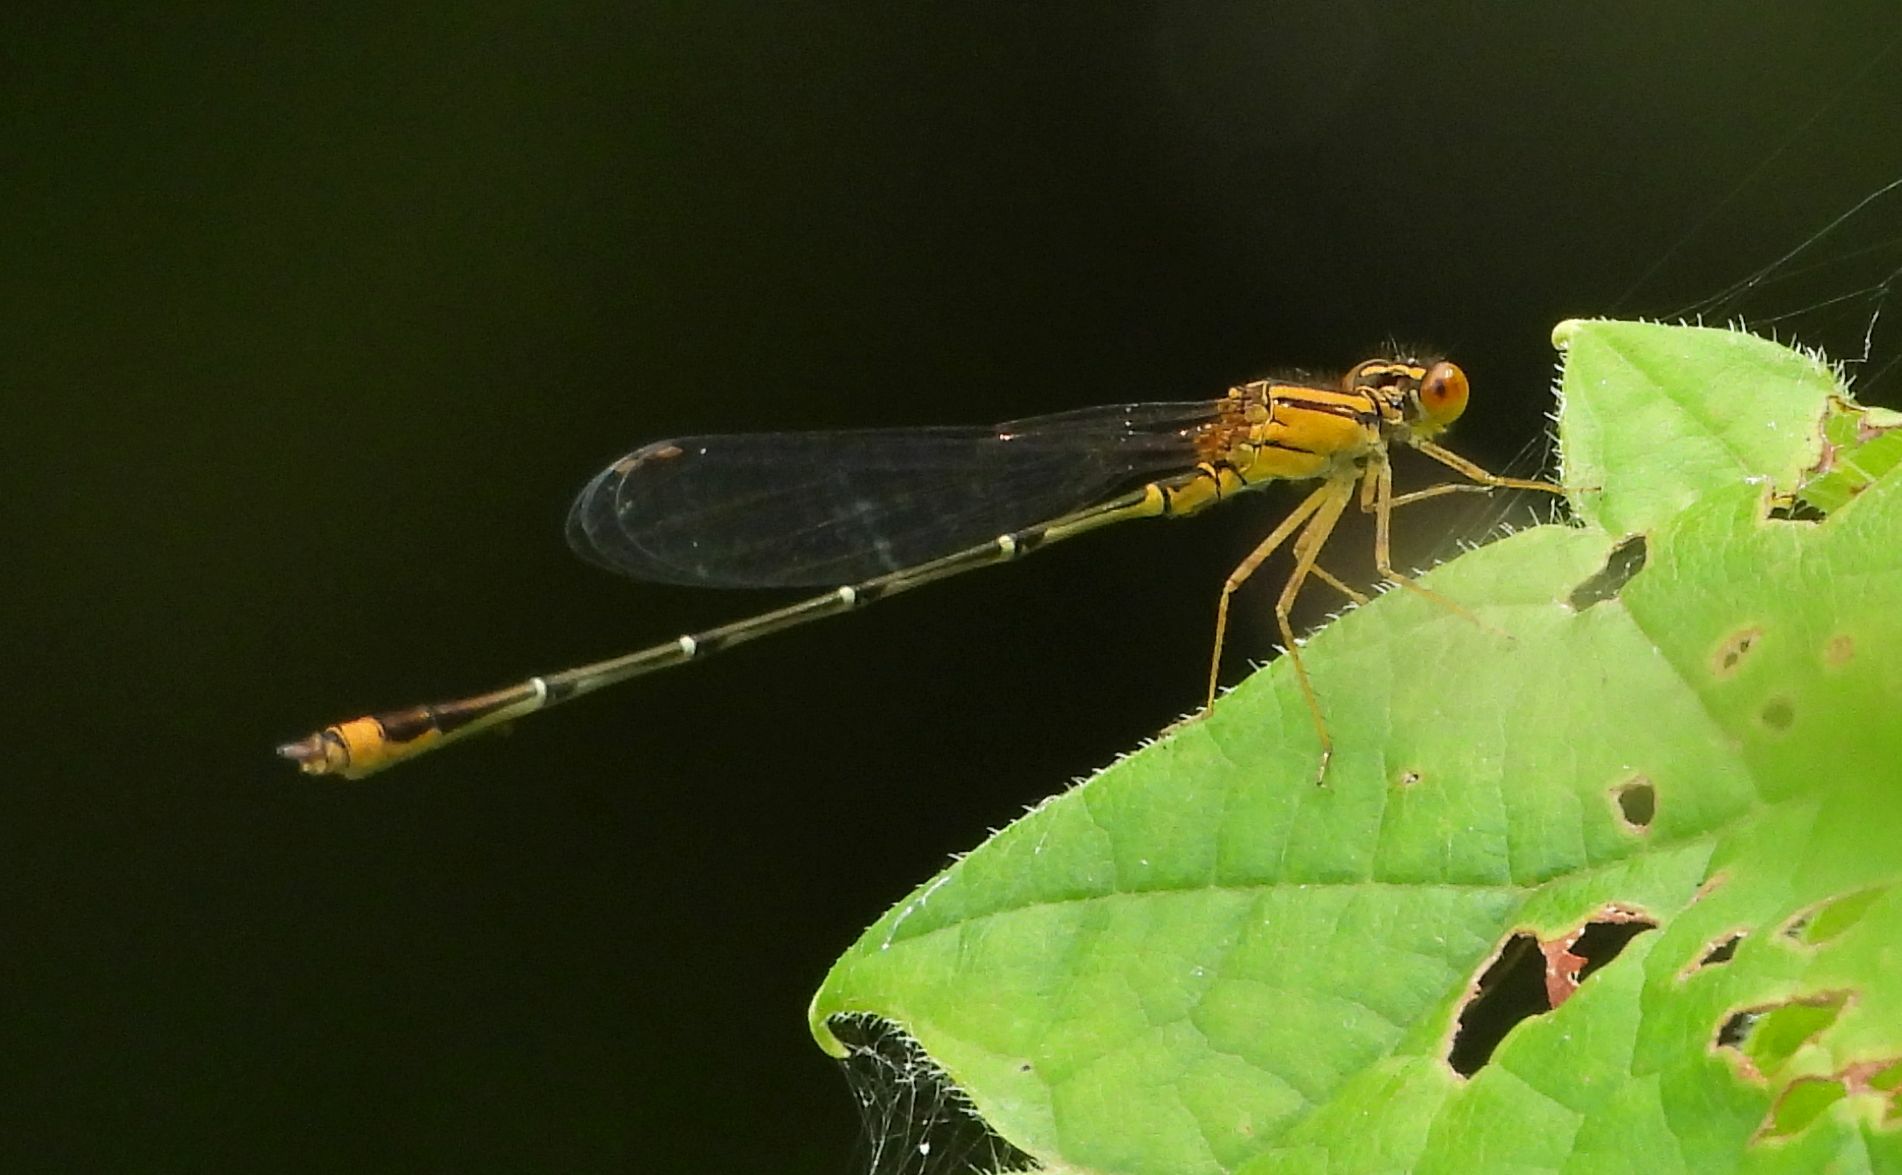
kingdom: Animalia
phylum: Arthropoda
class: Insecta
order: Odonata
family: Coenagrionidae
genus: Enallagma
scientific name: Enallagma signatum
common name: Orange bluet
